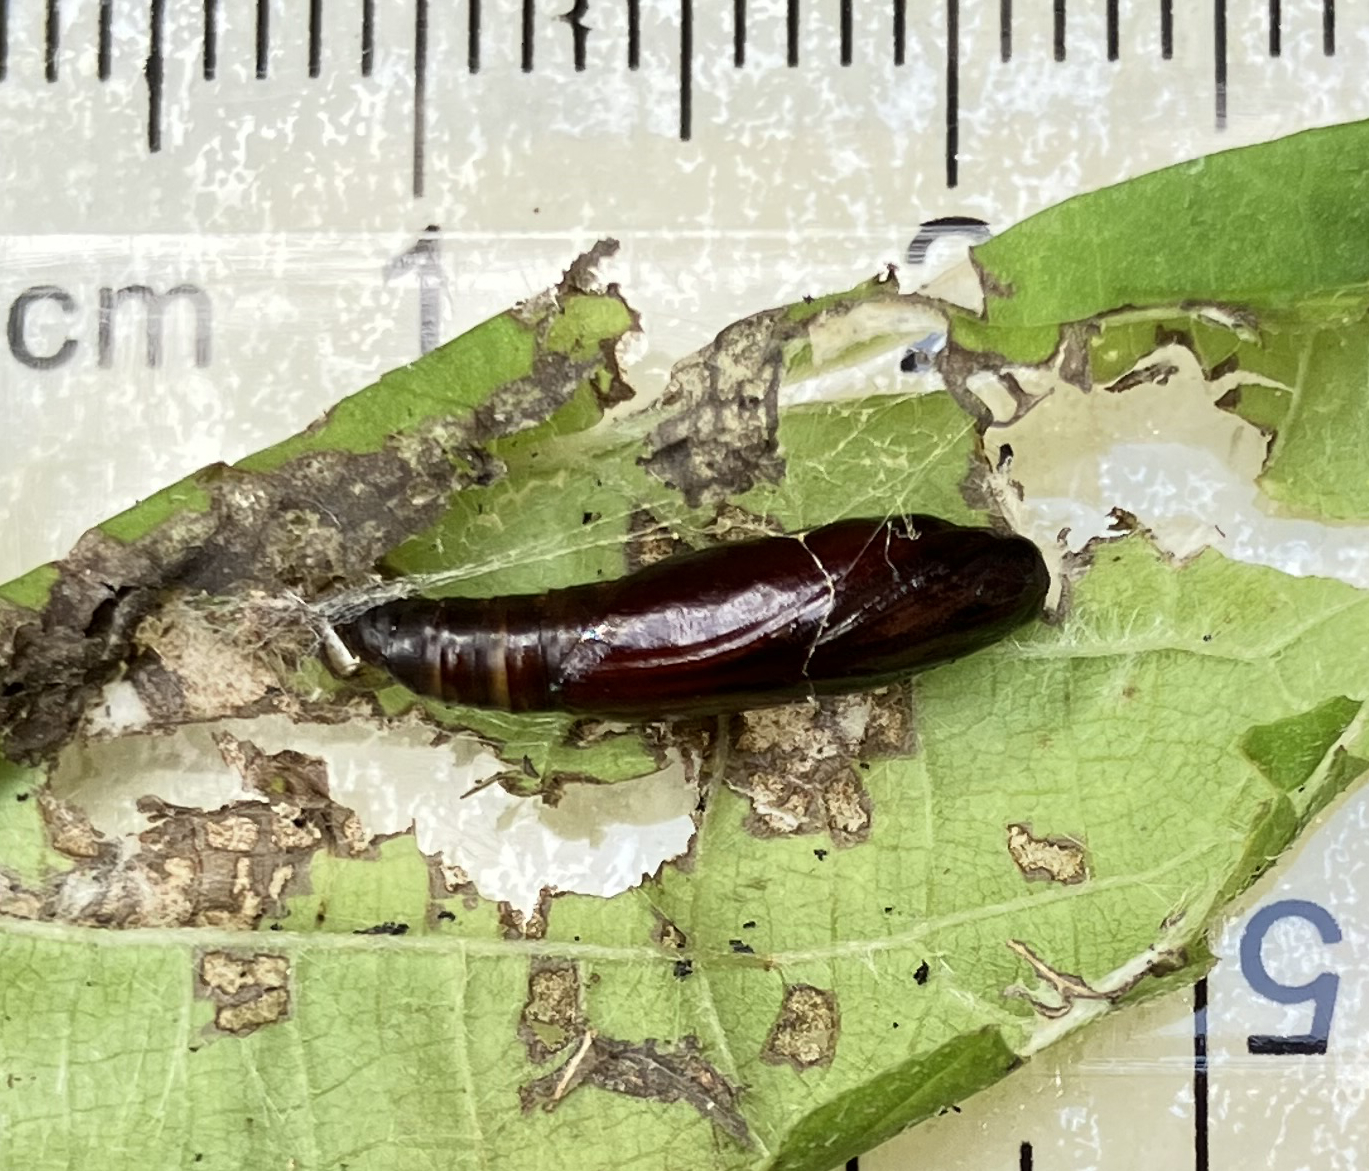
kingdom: Animalia
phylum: Arthropoda
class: Insecta
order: Lepidoptera
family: Crambidae
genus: Pleuroptya
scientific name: Pleuroptya silicalis
